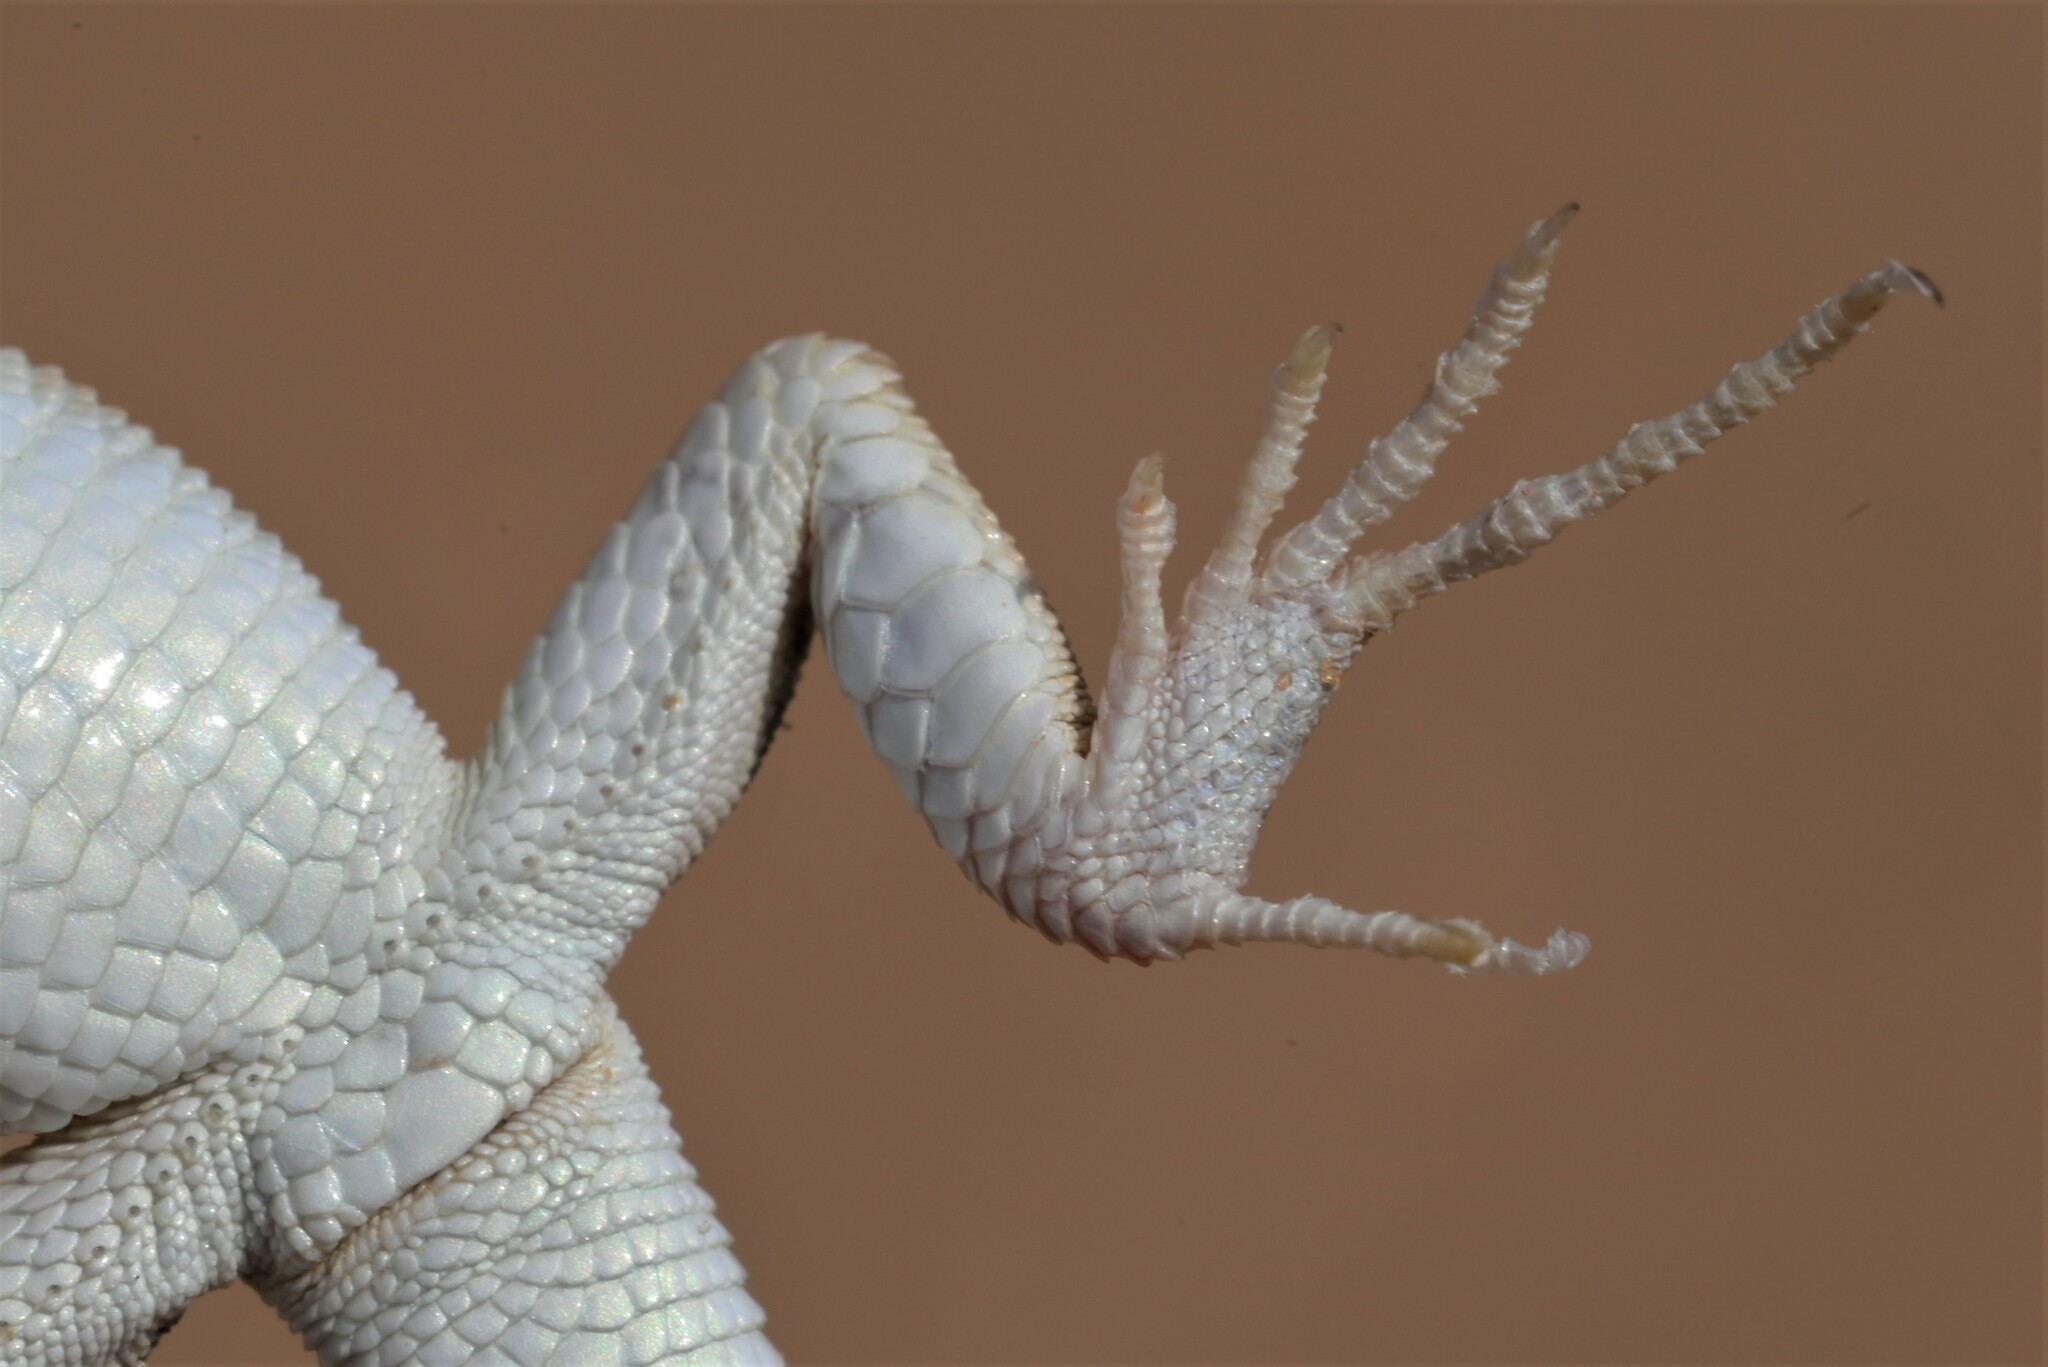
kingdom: Animalia
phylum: Chordata
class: Squamata
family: Lacertidae
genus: Mesalina
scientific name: Mesalina saudiarabica
